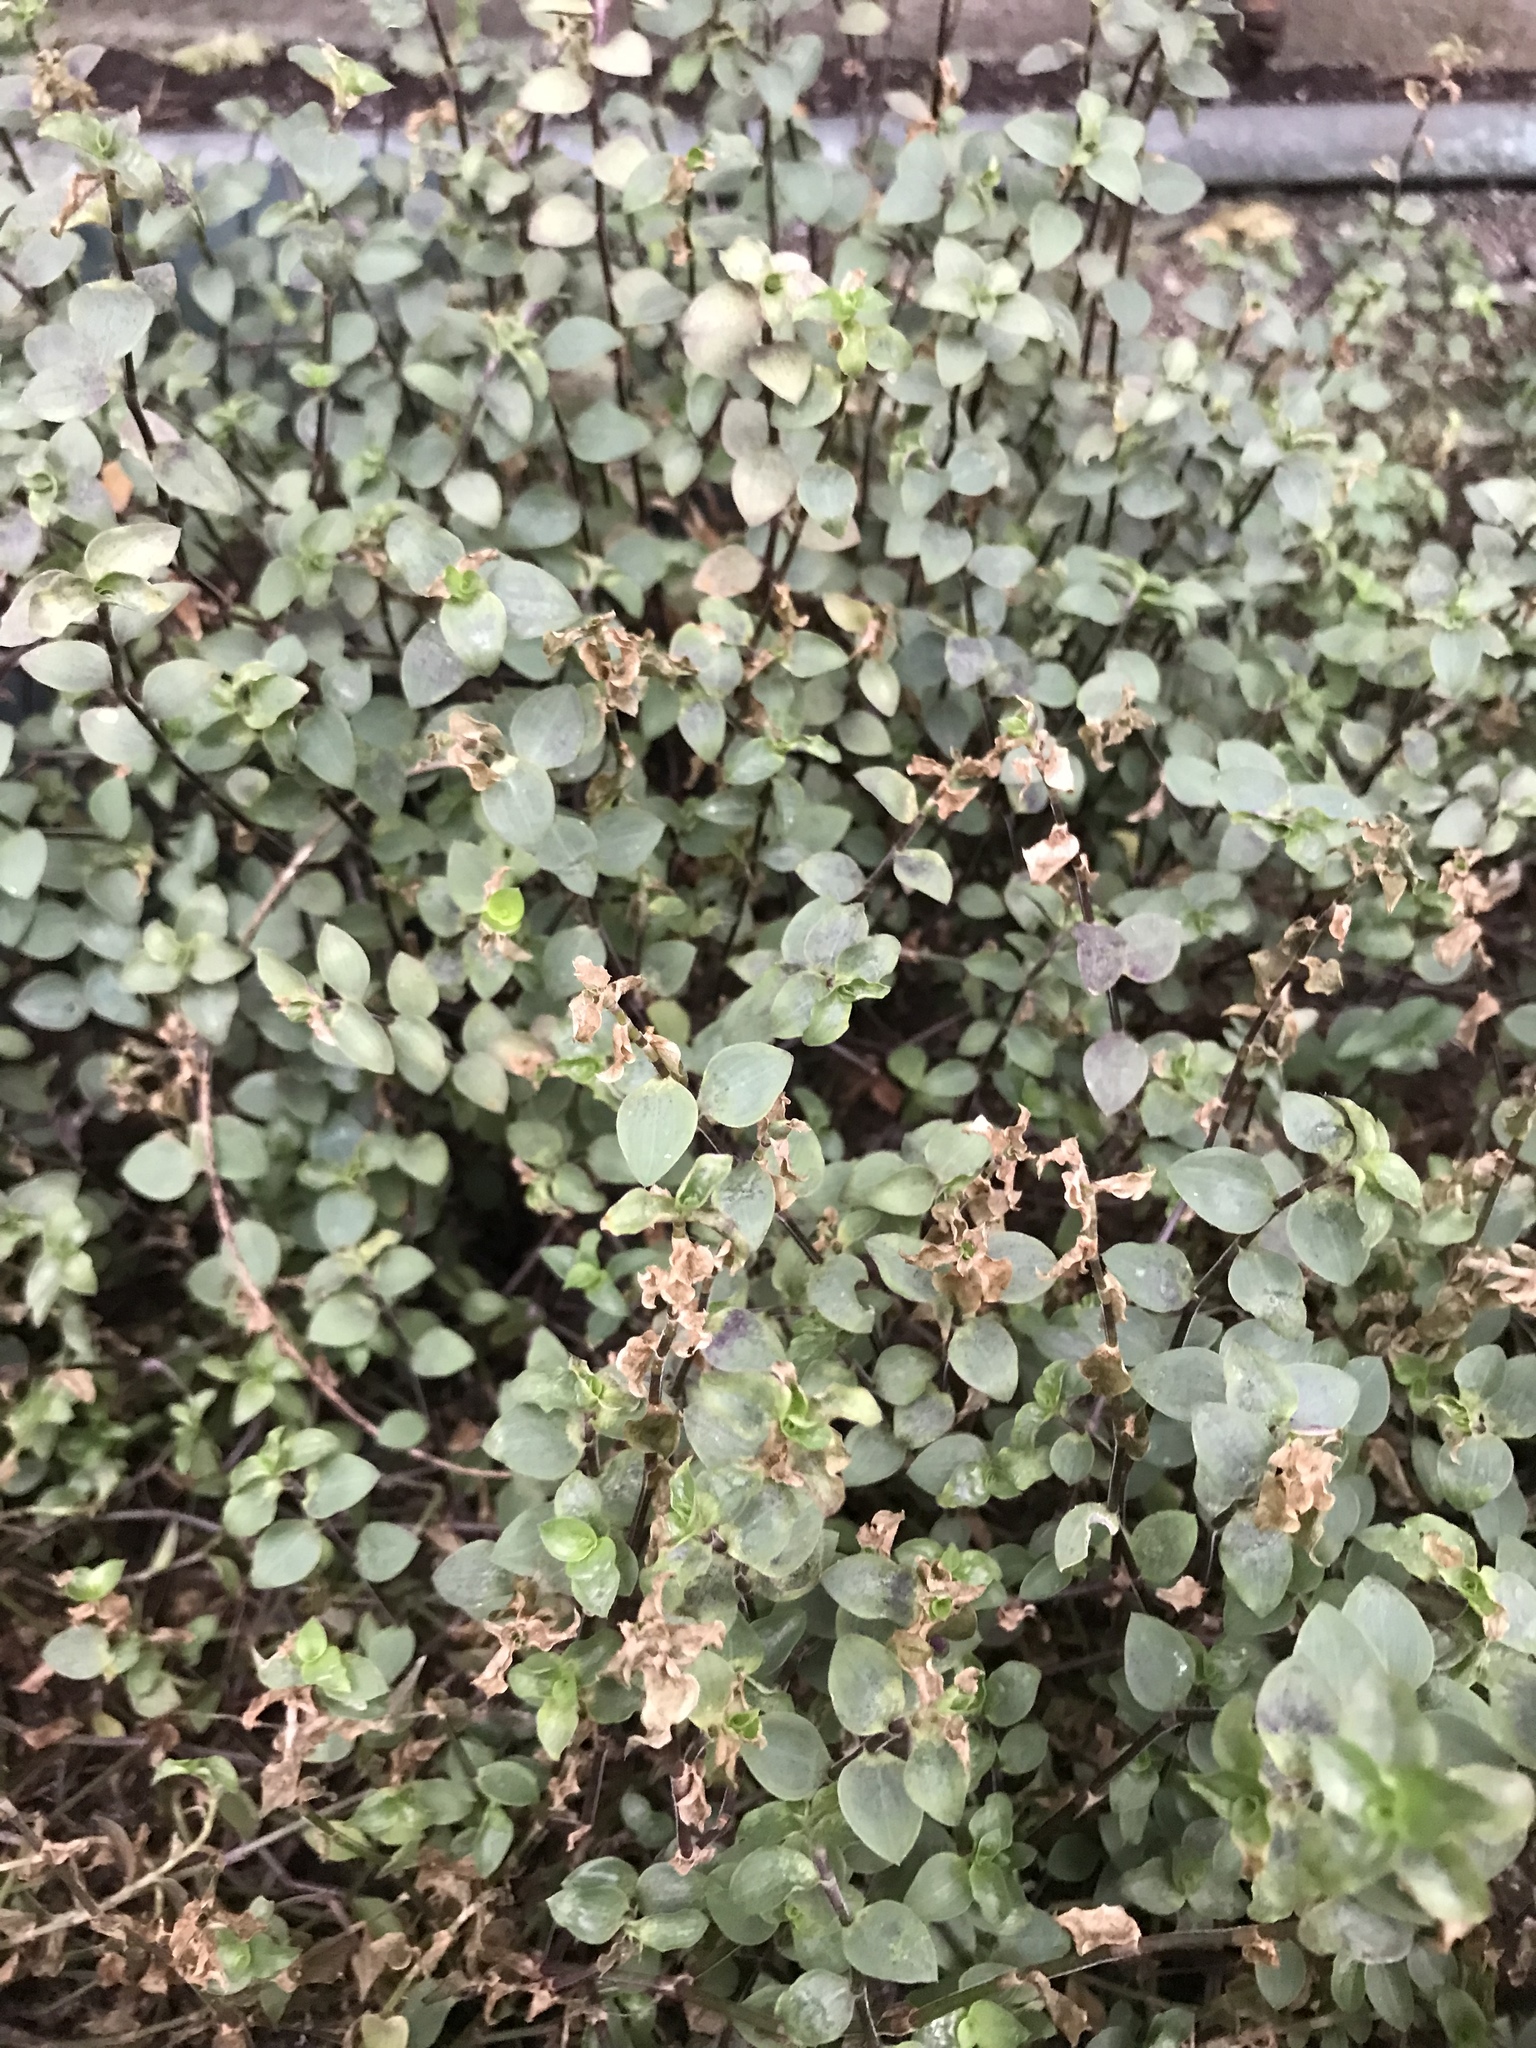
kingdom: Plantae
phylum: Tracheophyta
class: Liliopsida
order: Commelinales
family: Commelinaceae
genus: Callisia
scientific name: Callisia repens
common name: Creeping inchplant
